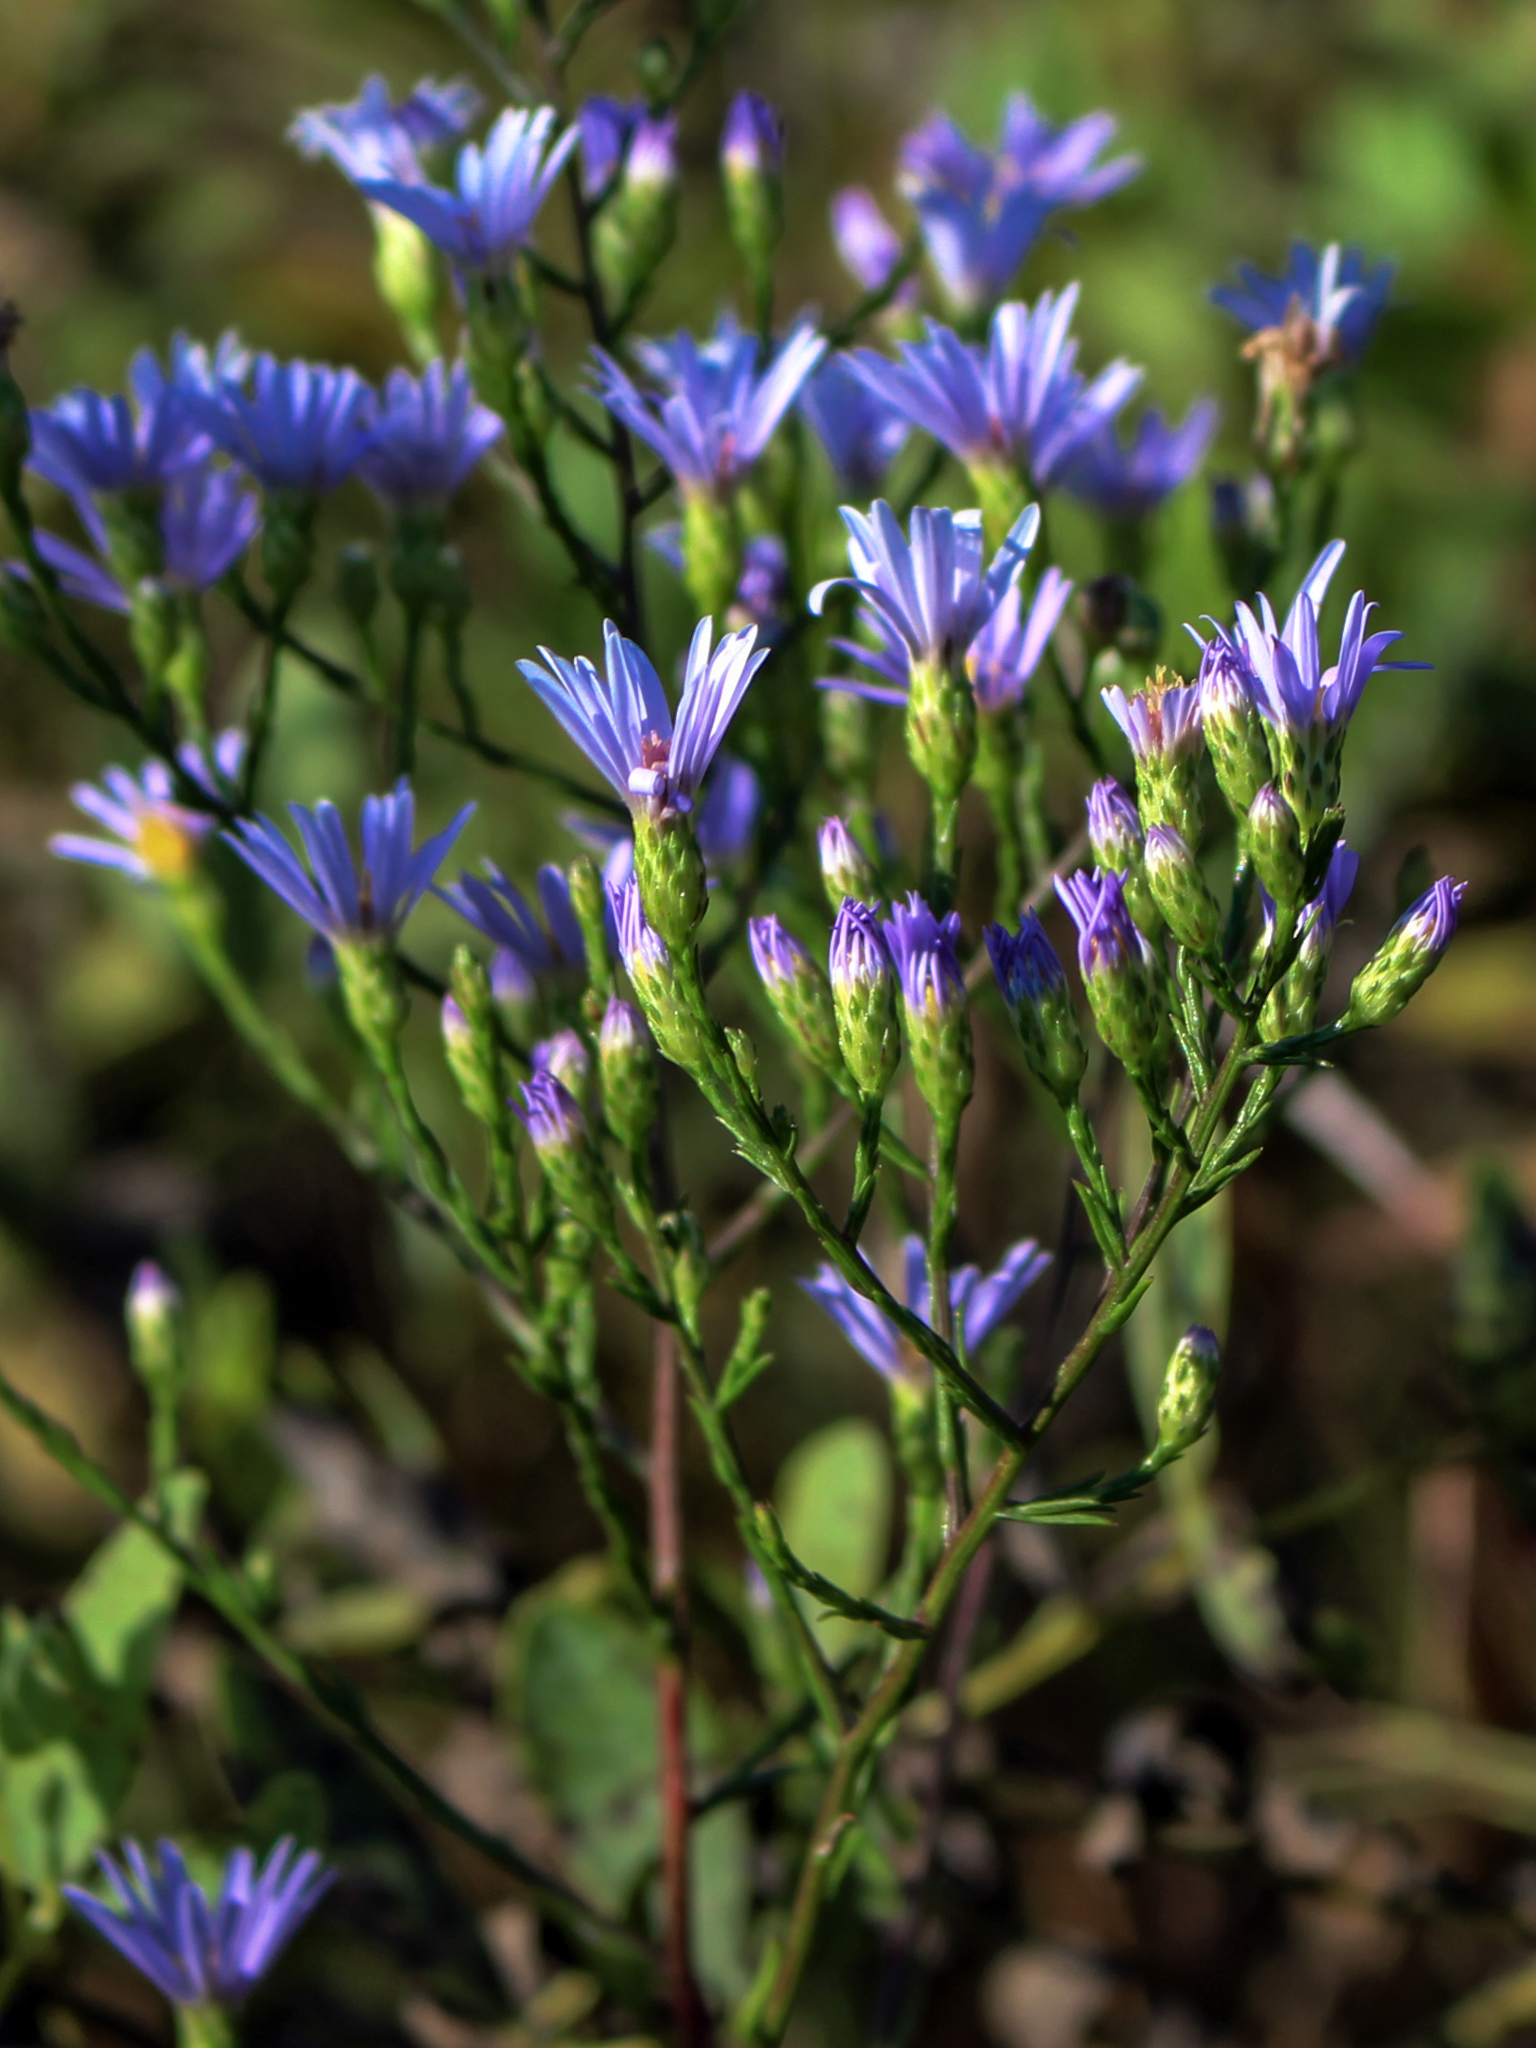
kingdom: Plantae
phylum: Tracheophyta
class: Magnoliopsida
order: Asterales
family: Asteraceae
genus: Symphyotrichum
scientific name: Symphyotrichum oolentangiense
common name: Azure aster
